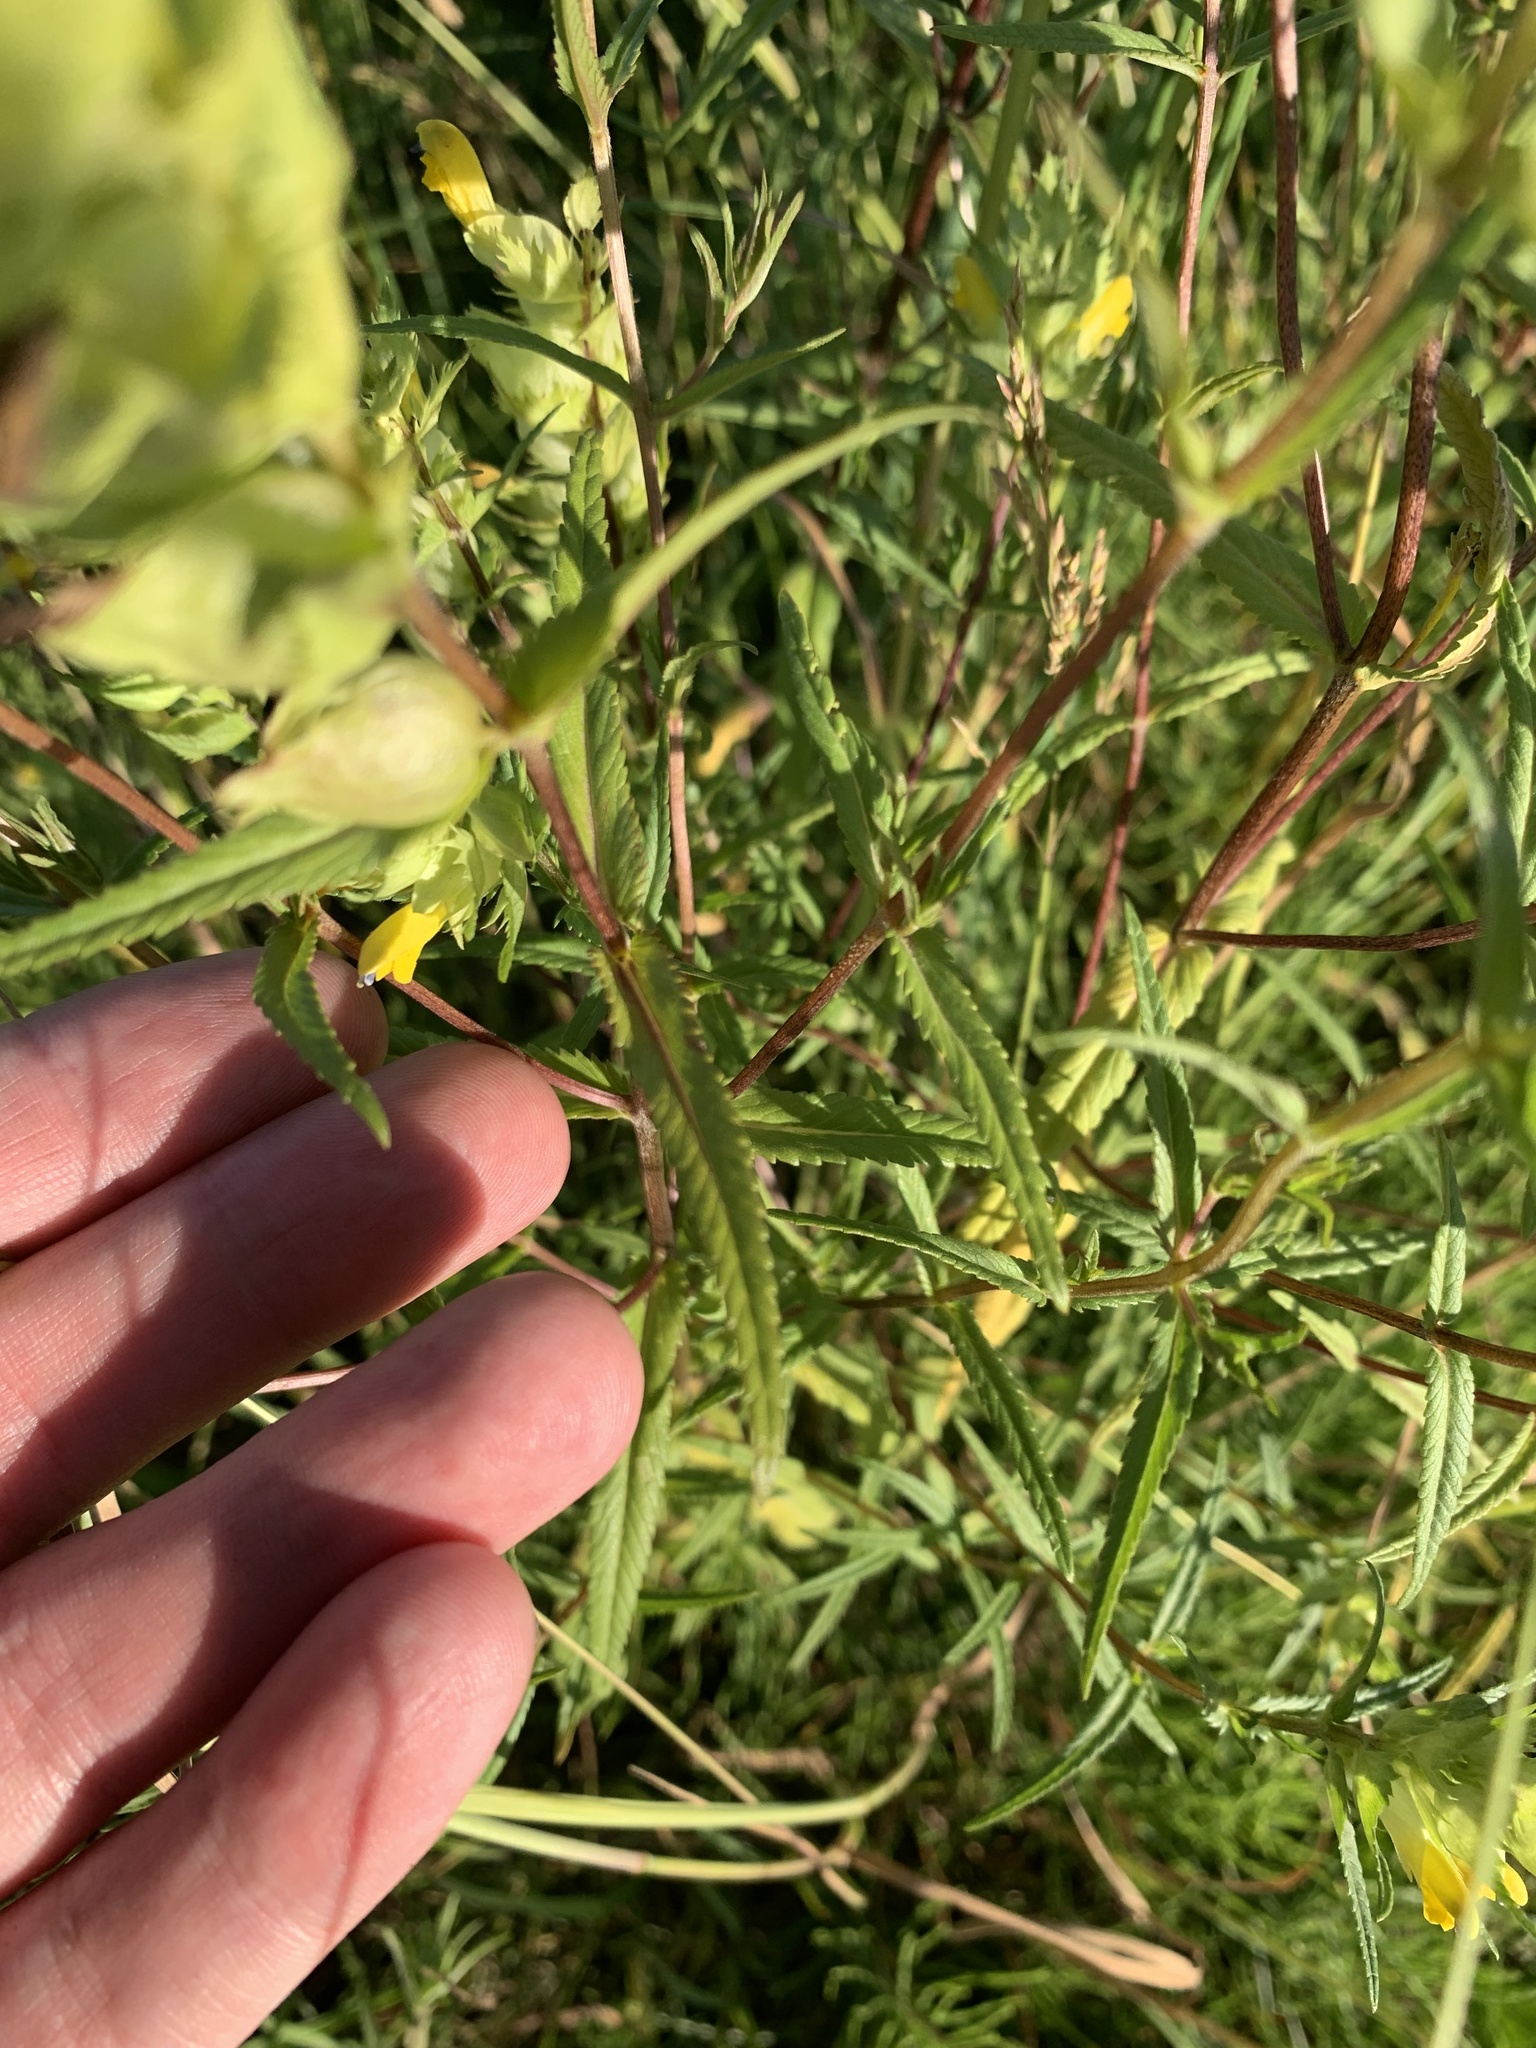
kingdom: Plantae
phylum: Tracheophyta
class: Magnoliopsida
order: Lamiales
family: Orobanchaceae
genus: Rhinanthus
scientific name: Rhinanthus serotinus
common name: Late-flowering yellow rattle
